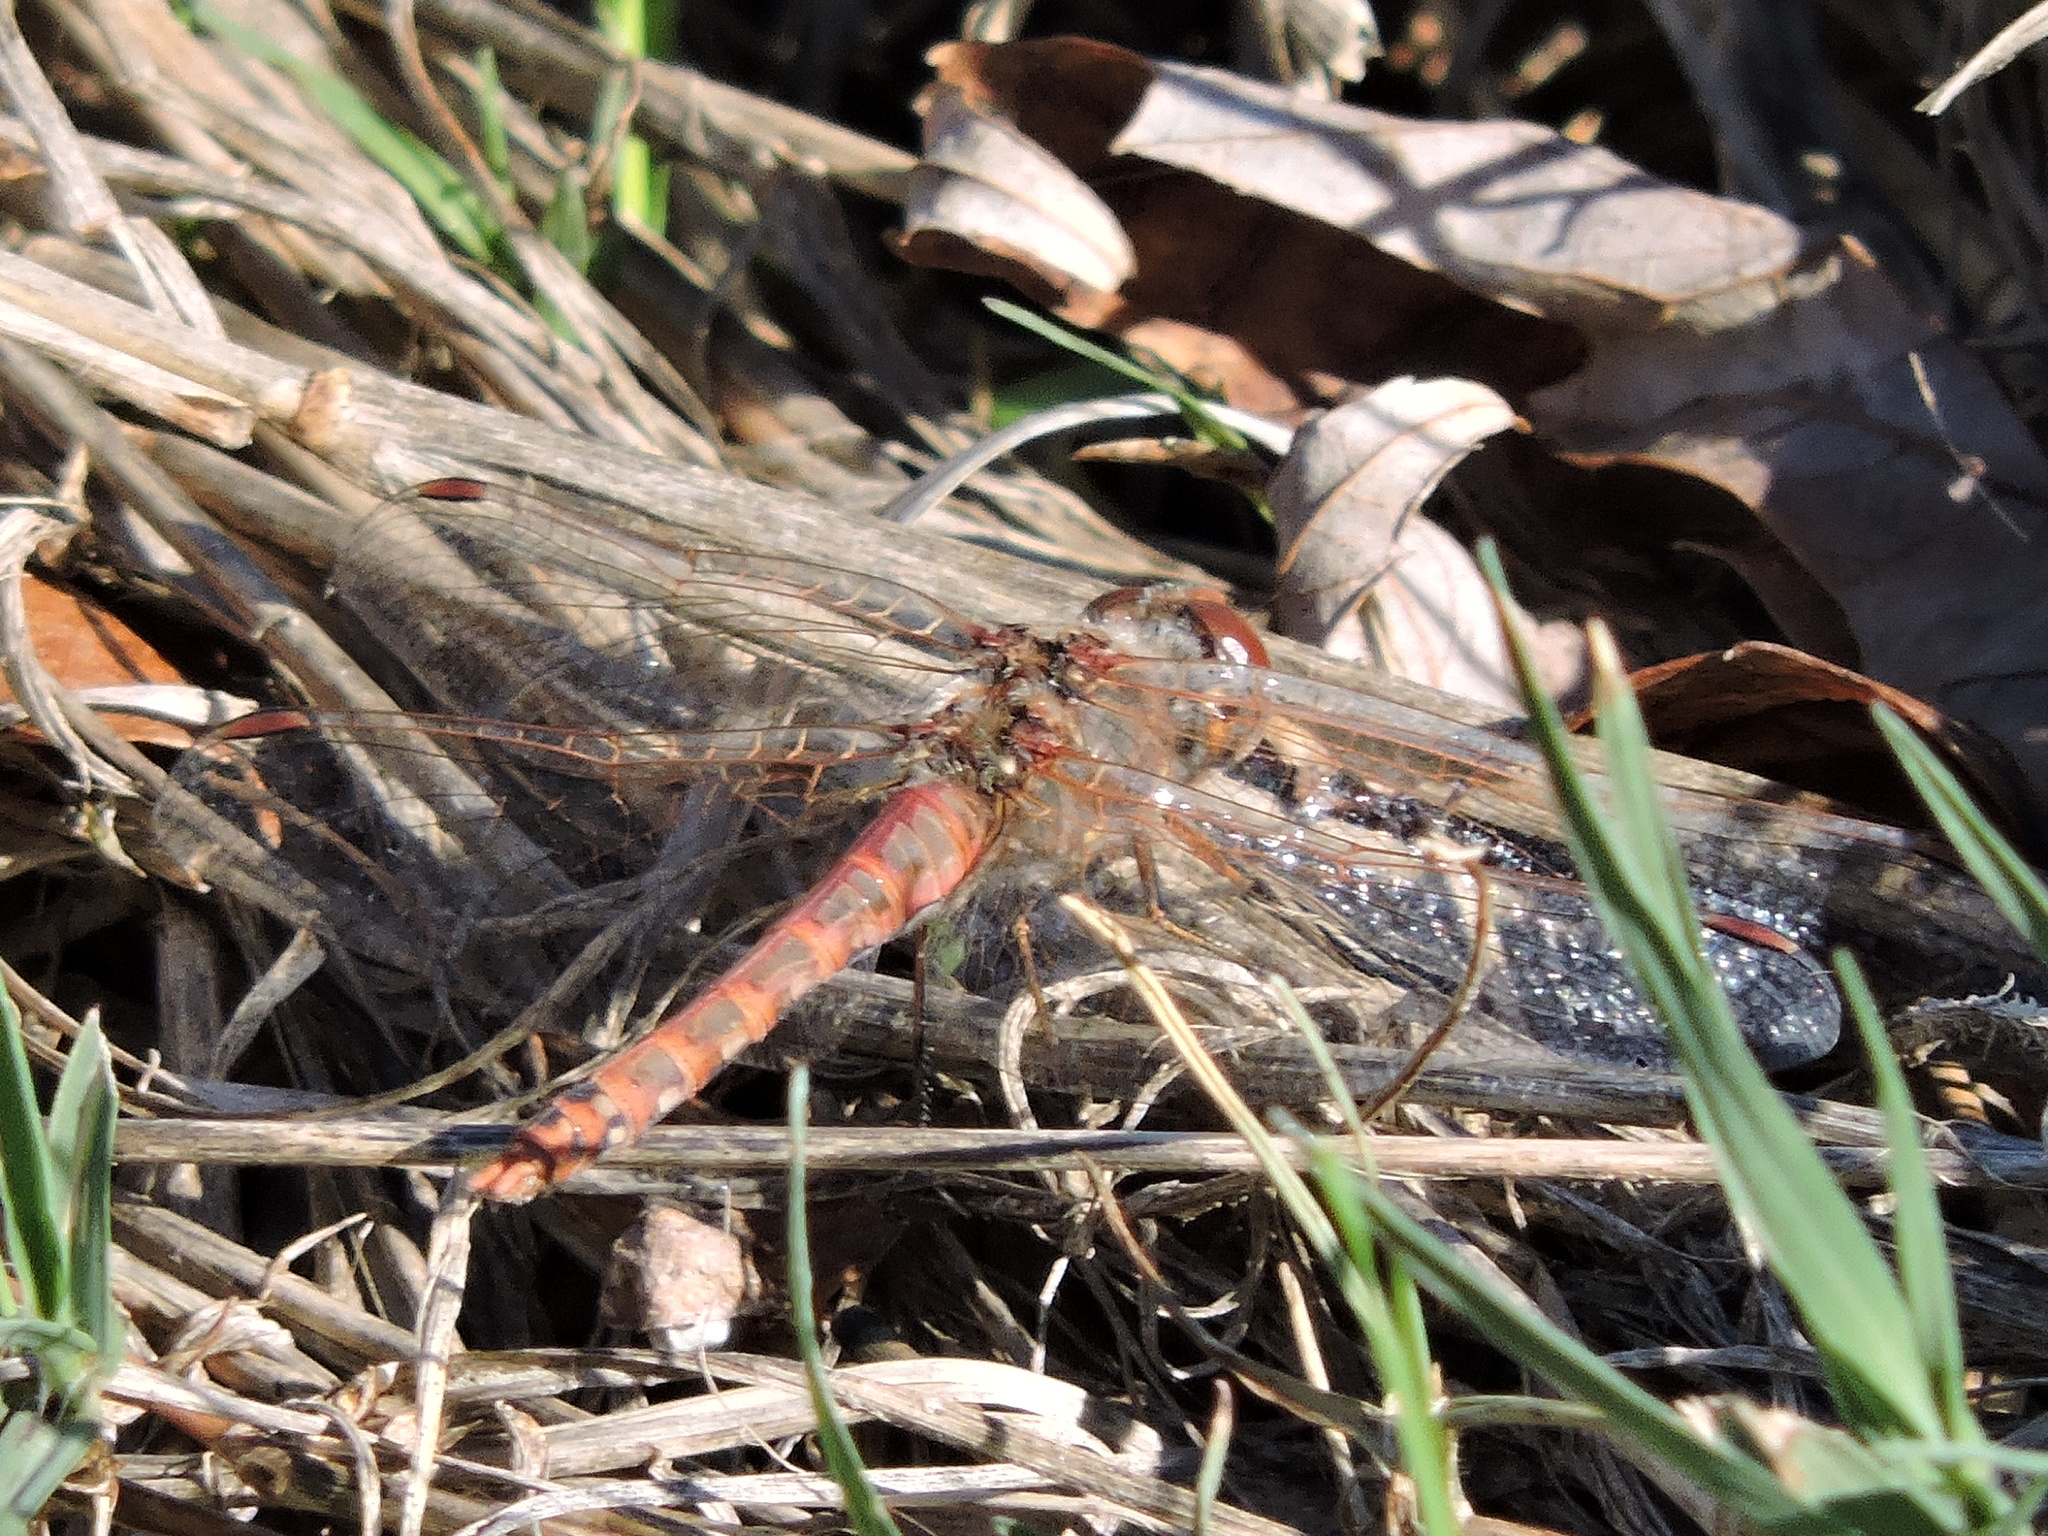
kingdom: Animalia
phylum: Arthropoda
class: Insecta
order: Odonata
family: Libellulidae
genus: Sympetrum
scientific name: Sympetrum corruptum
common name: Variegated meadowhawk
